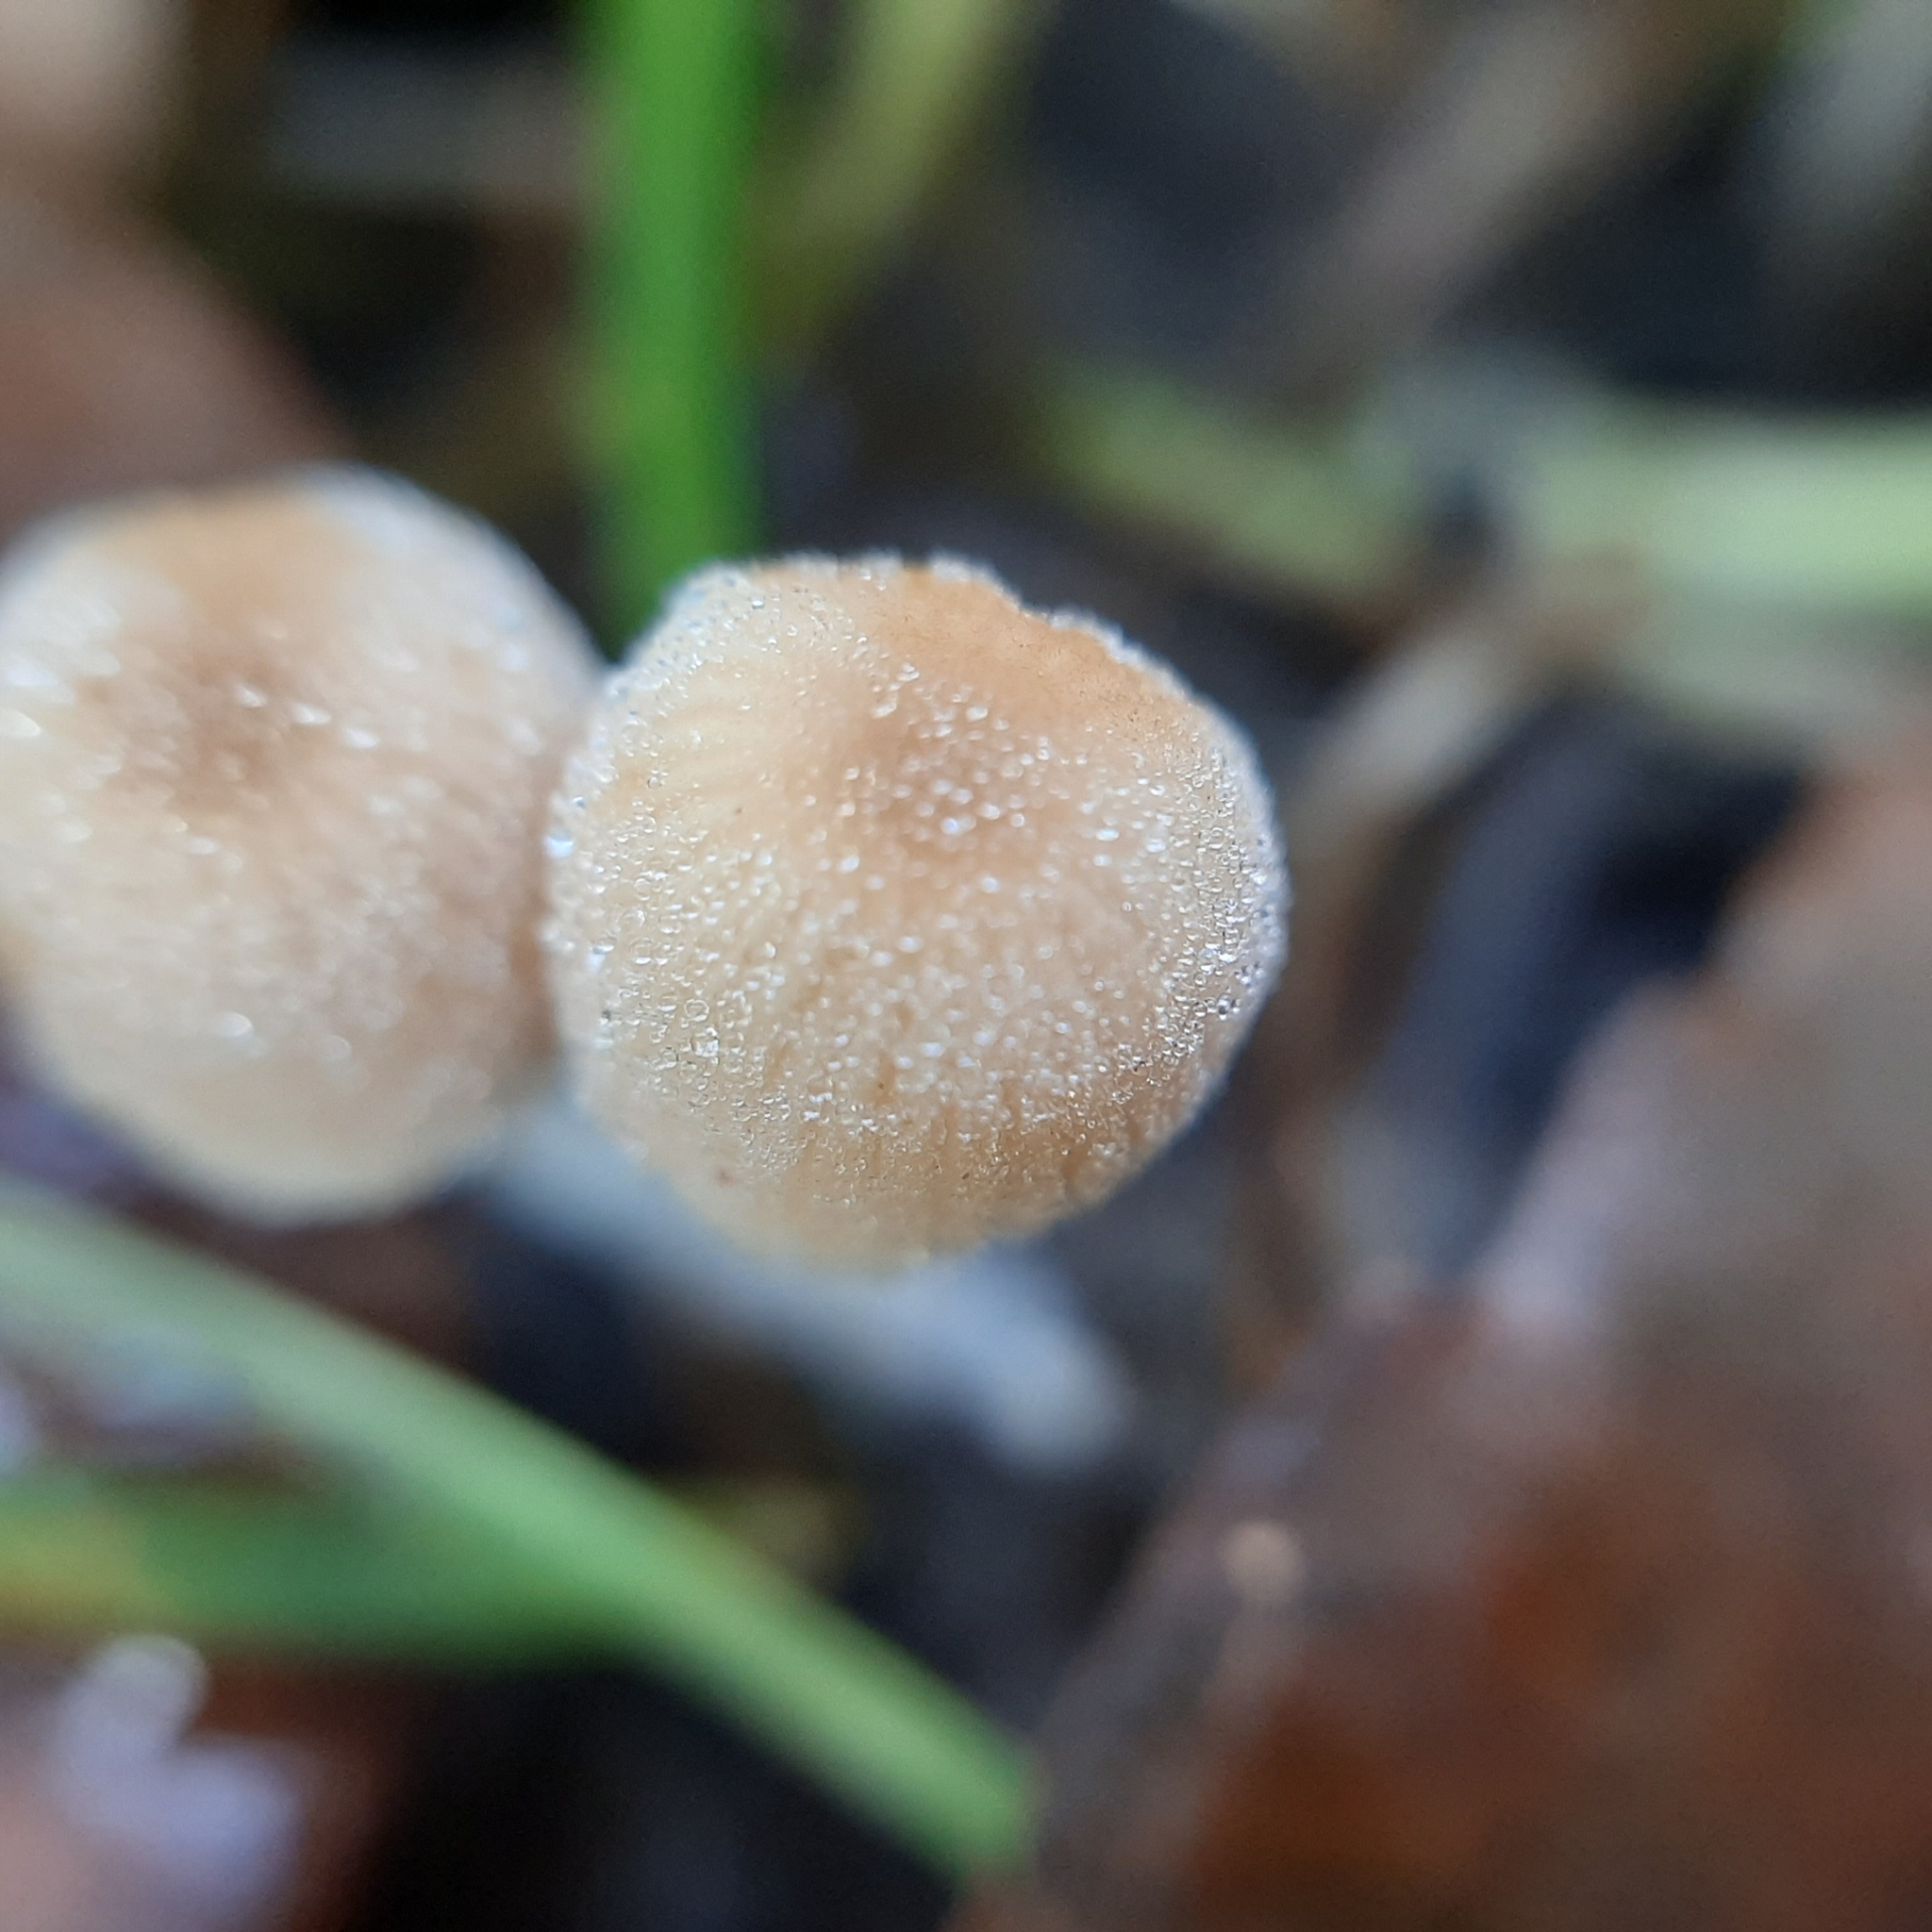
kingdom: Fungi
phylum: Basidiomycota
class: Agaricomycetes
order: Agaricales
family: Psathyrellaceae
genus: Coprinellus
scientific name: Coprinellus
